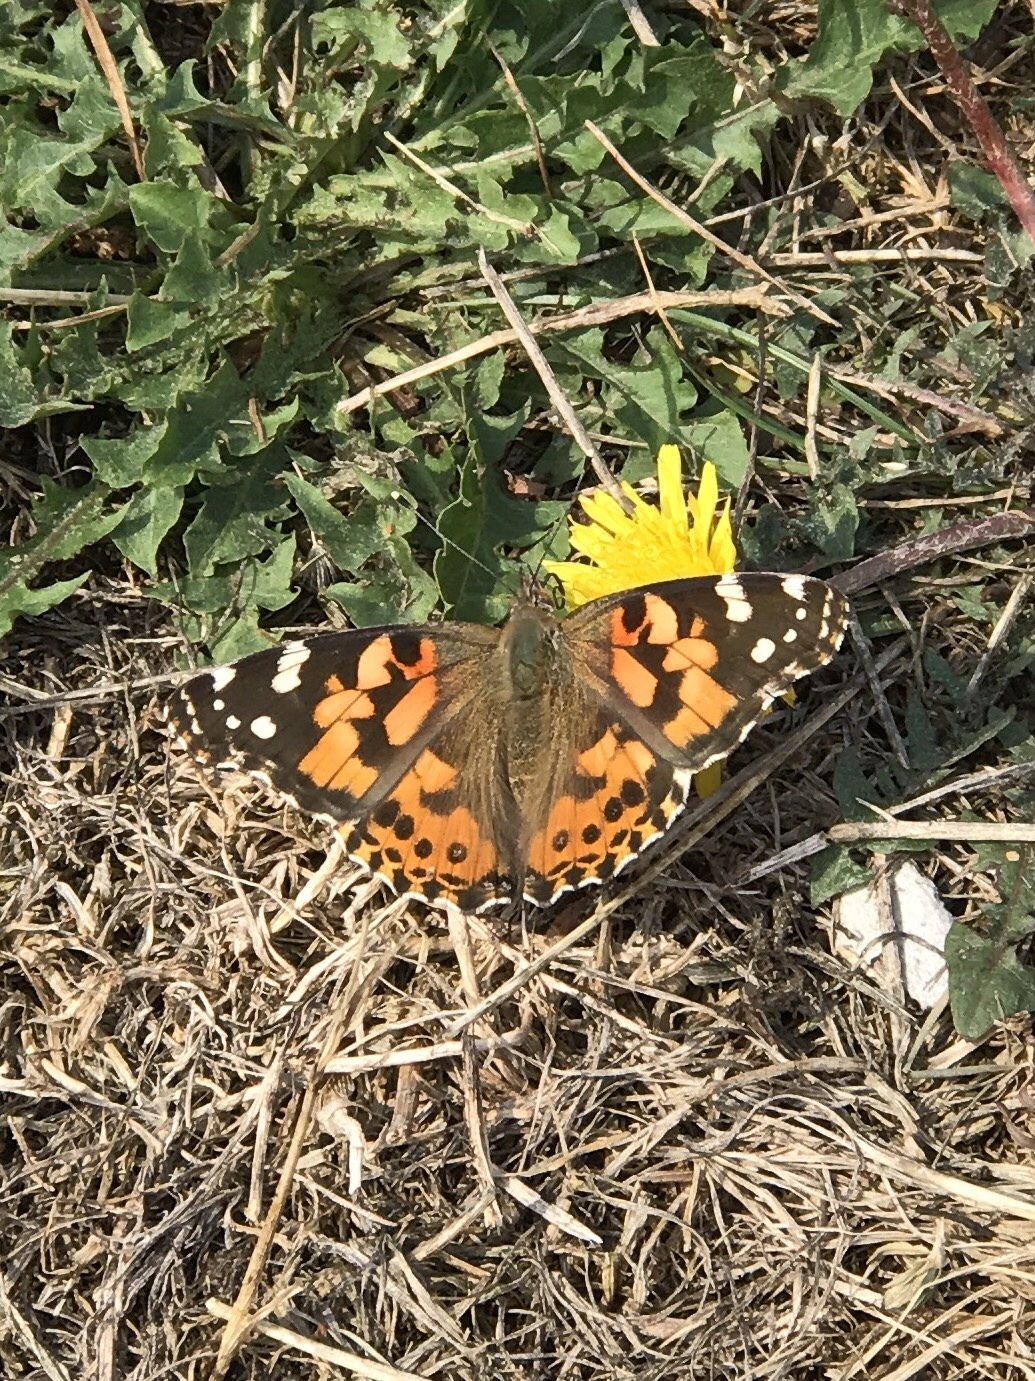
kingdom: Animalia
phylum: Arthropoda
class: Insecta
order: Lepidoptera
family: Nymphalidae
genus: Vanessa
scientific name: Vanessa cardui
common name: Painted lady
